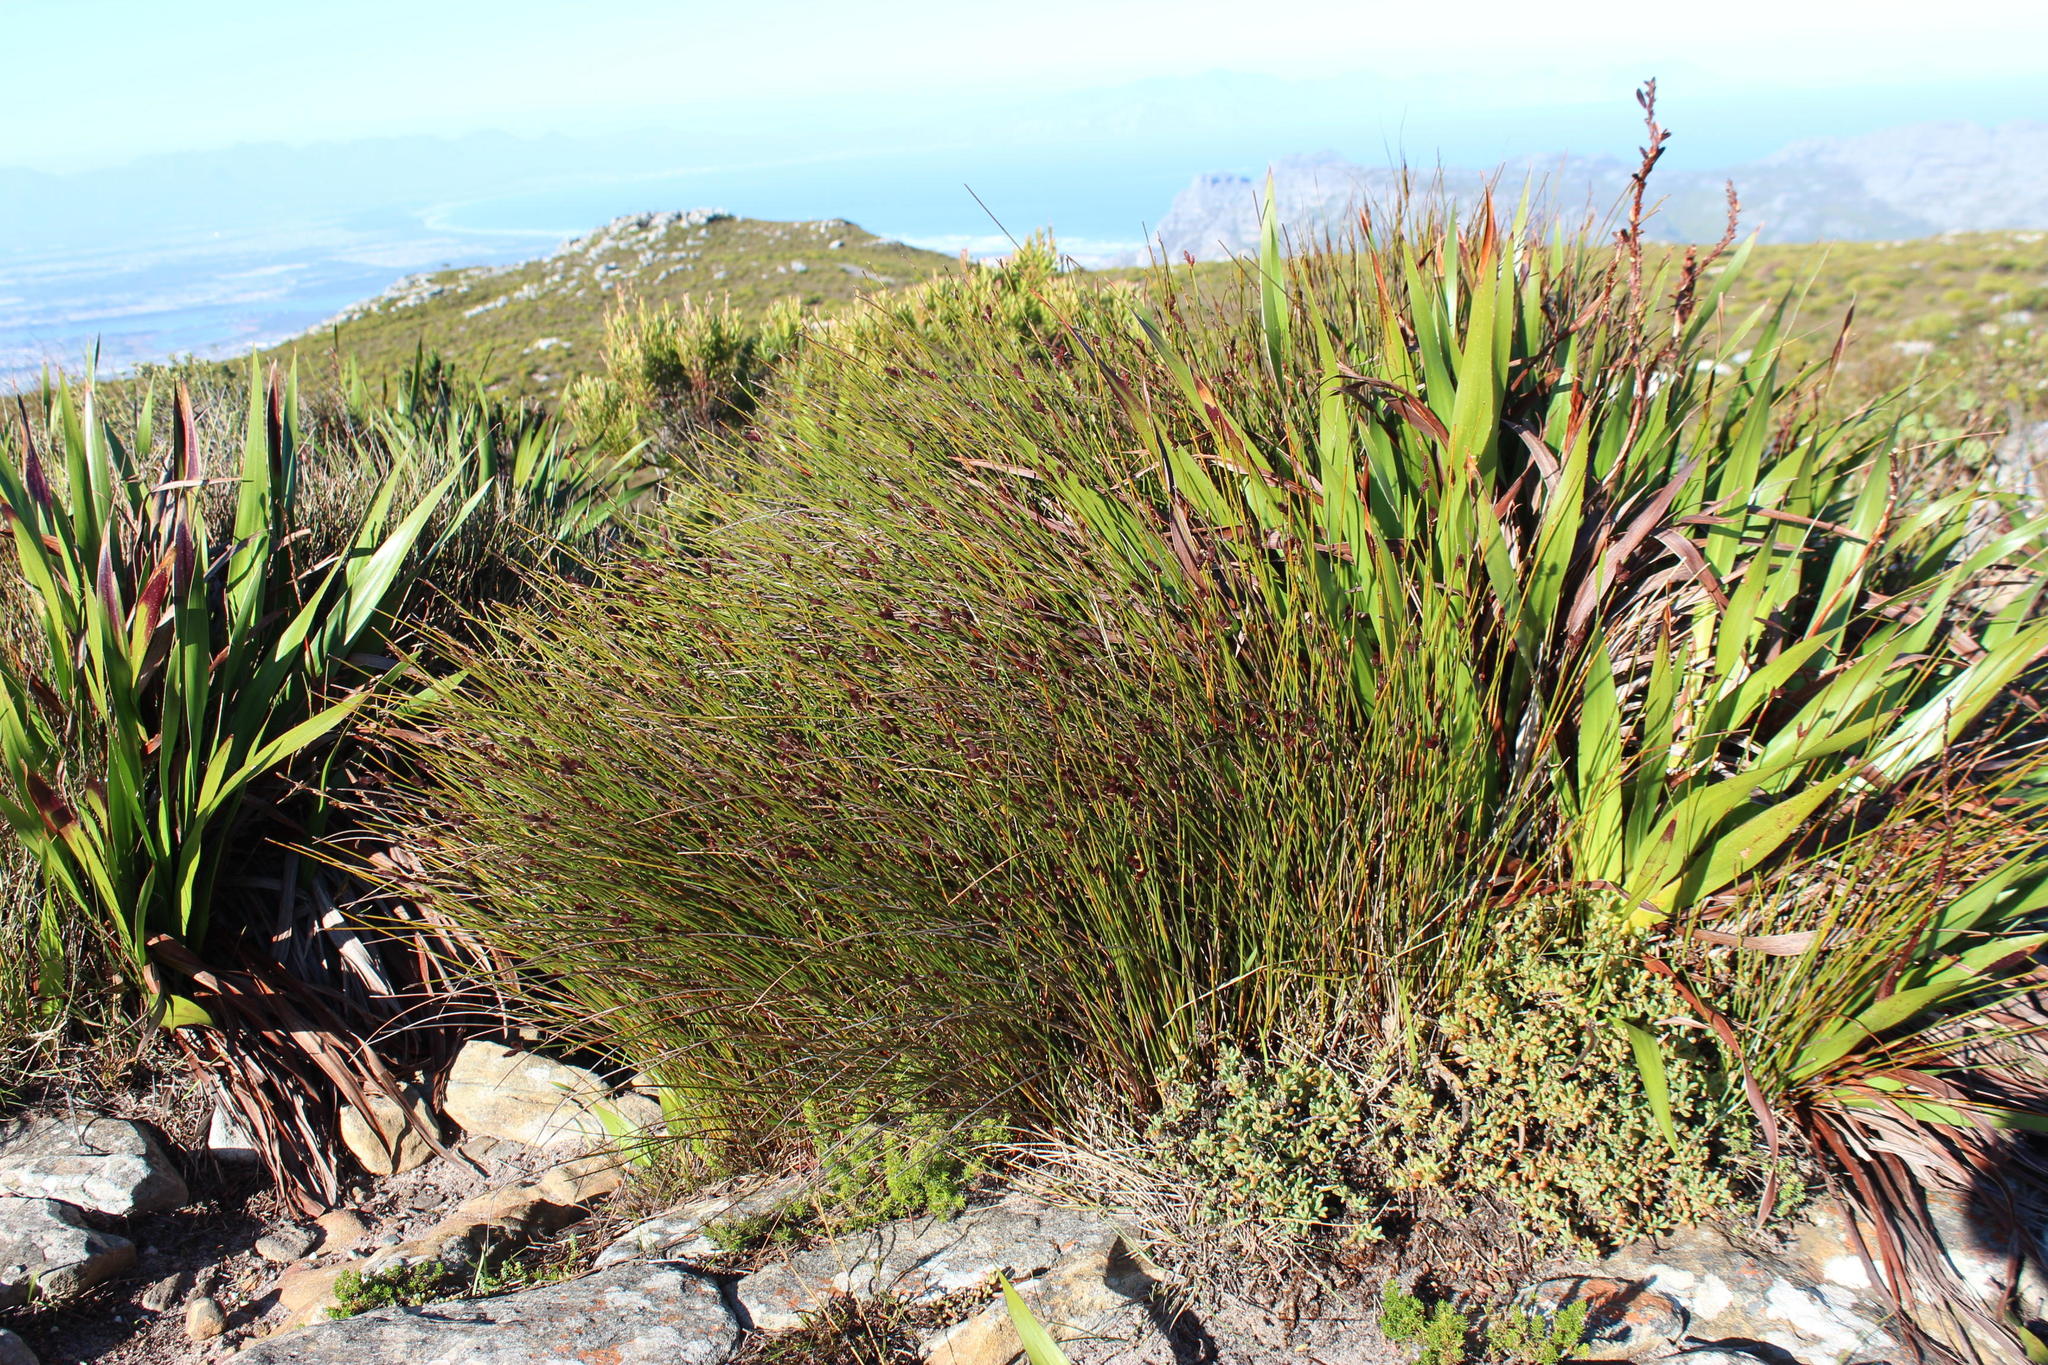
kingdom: Plantae
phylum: Tracheophyta
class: Liliopsida
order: Poales
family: Restionaceae
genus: Hypodiscus
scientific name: Hypodiscus aristatus
